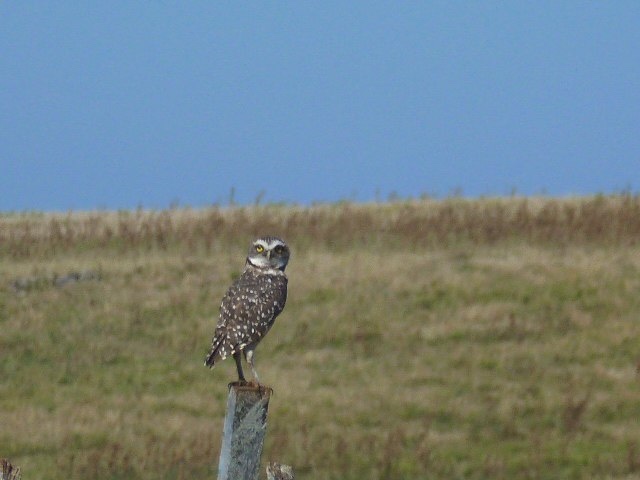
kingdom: Animalia
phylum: Chordata
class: Aves
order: Strigiformes
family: Strigidae
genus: Athene
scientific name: Athene cunicularia
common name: Burrowing owl
